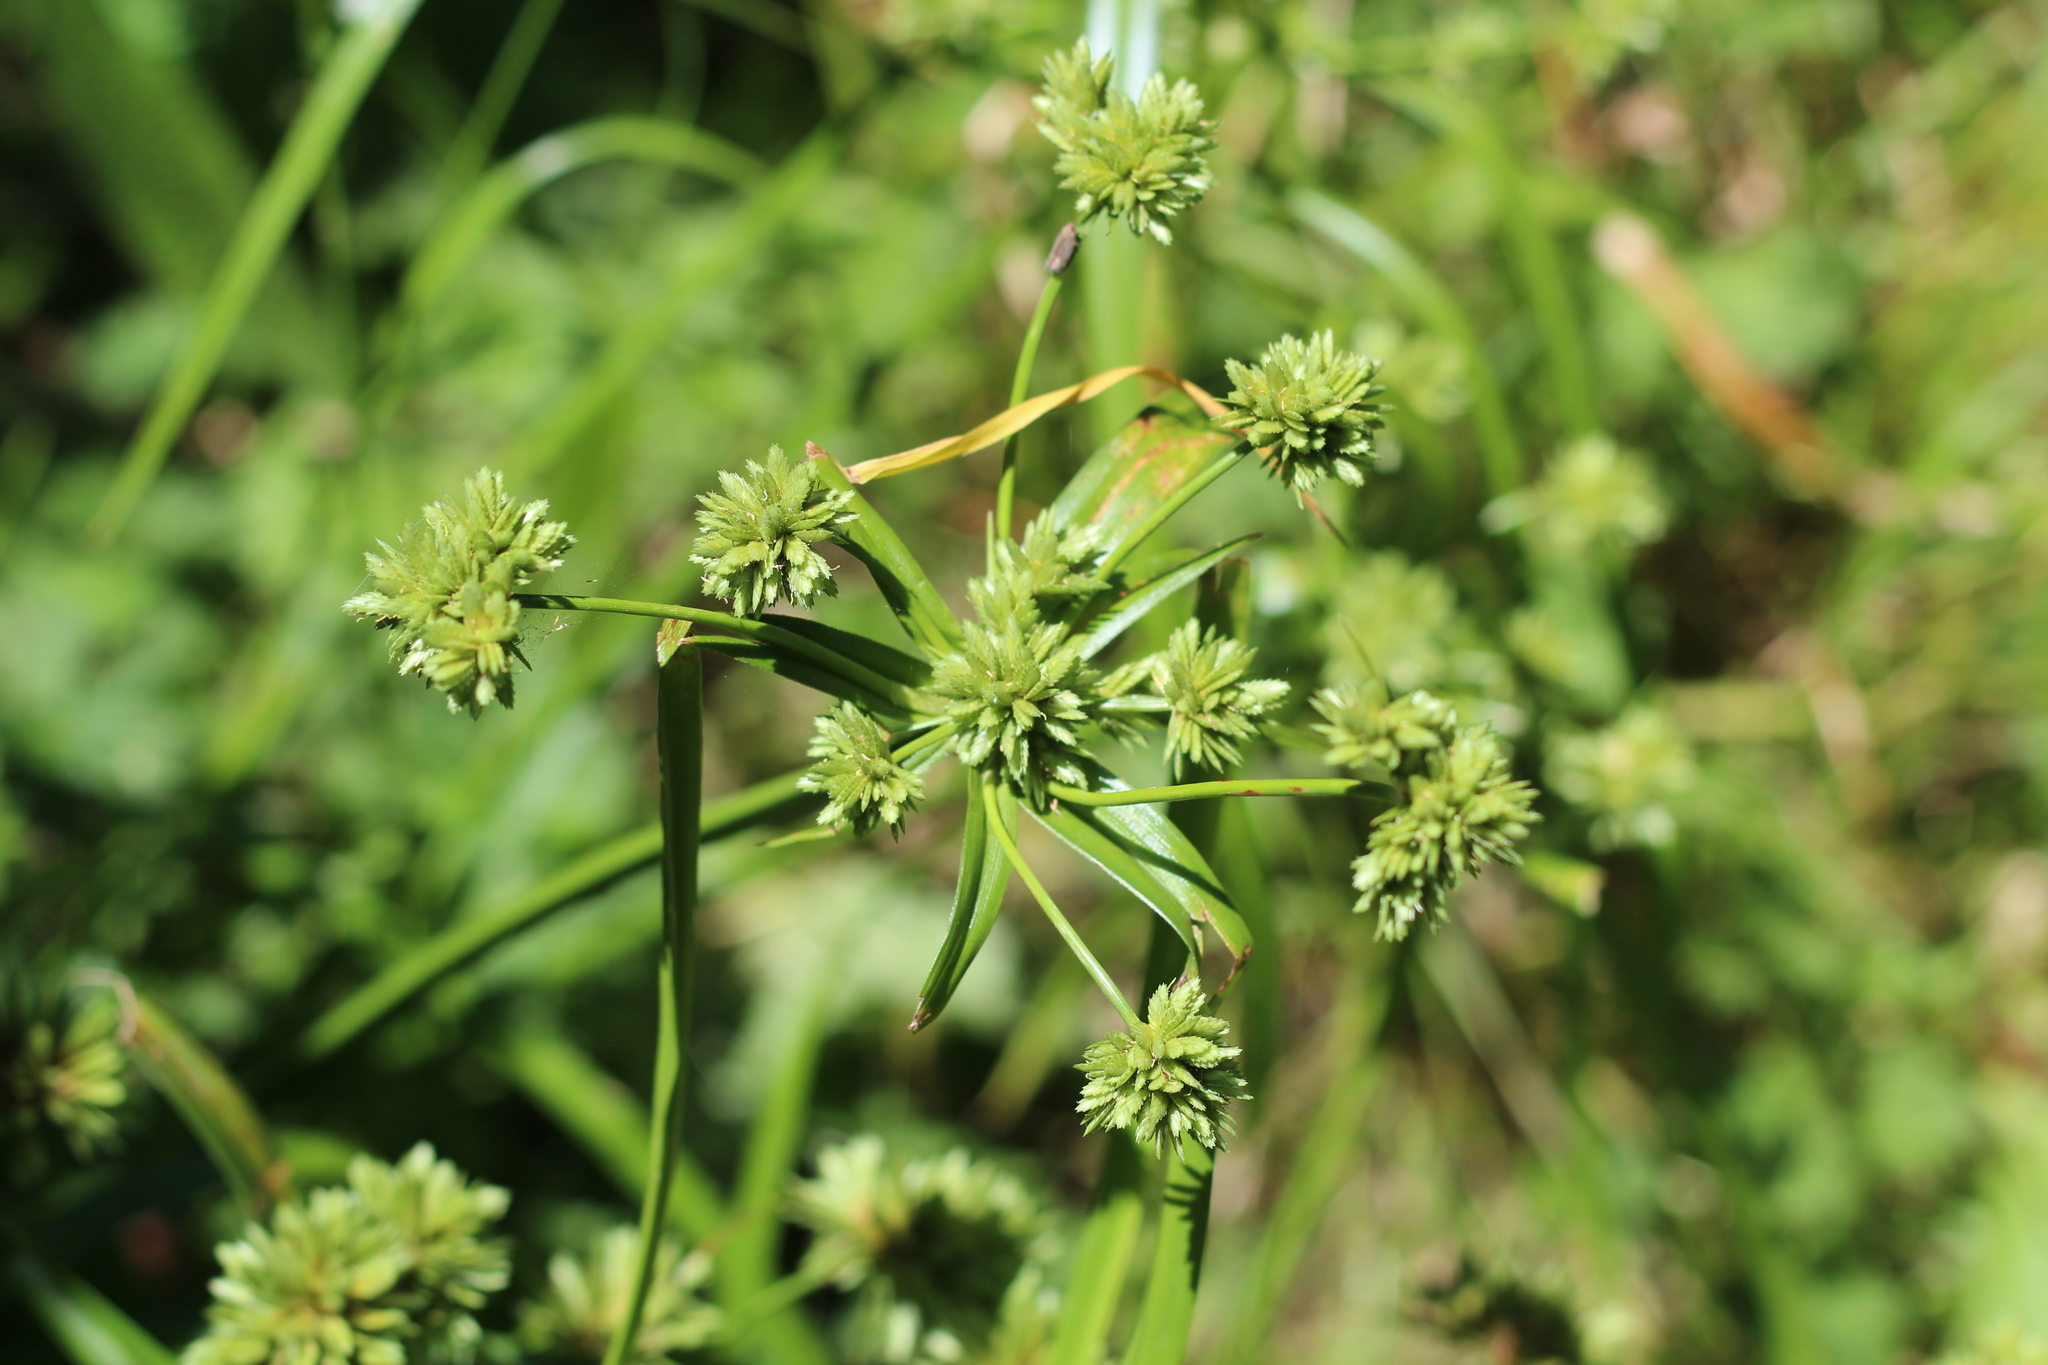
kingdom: Plantae
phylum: Tracheophyta
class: Liliopsida
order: Poales
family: Cyperaceae
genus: Cyperus
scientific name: Cyperus eragrostis
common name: Tall flatsedge
